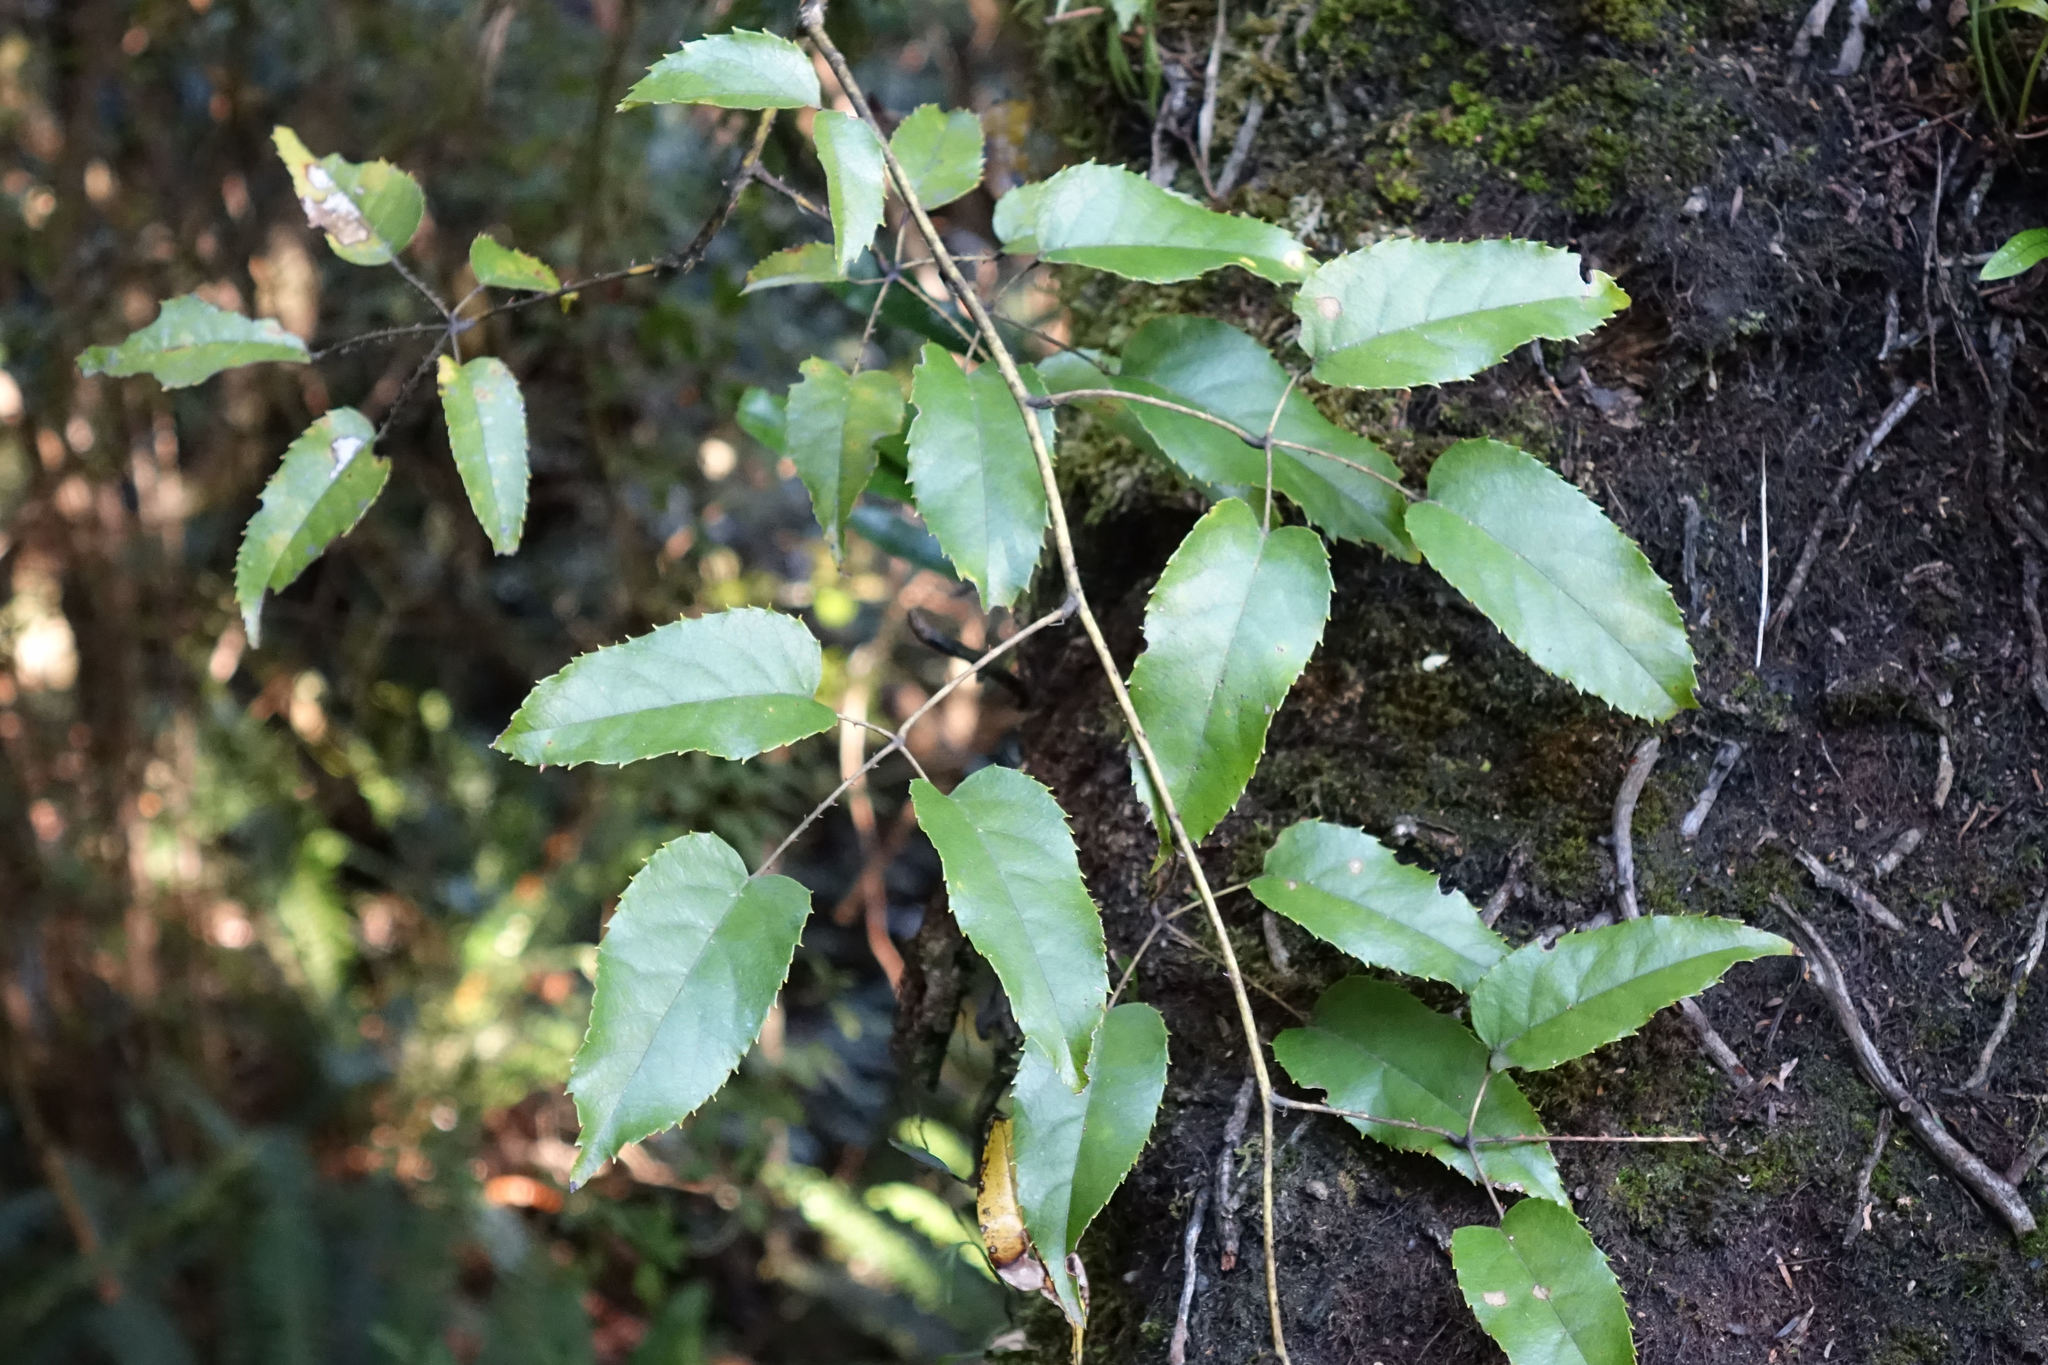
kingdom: Plantae
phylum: Tracheophyta
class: Magnoliopsida
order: Rosales
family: Rosaceae
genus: Rubus
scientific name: Rubus cissoides
